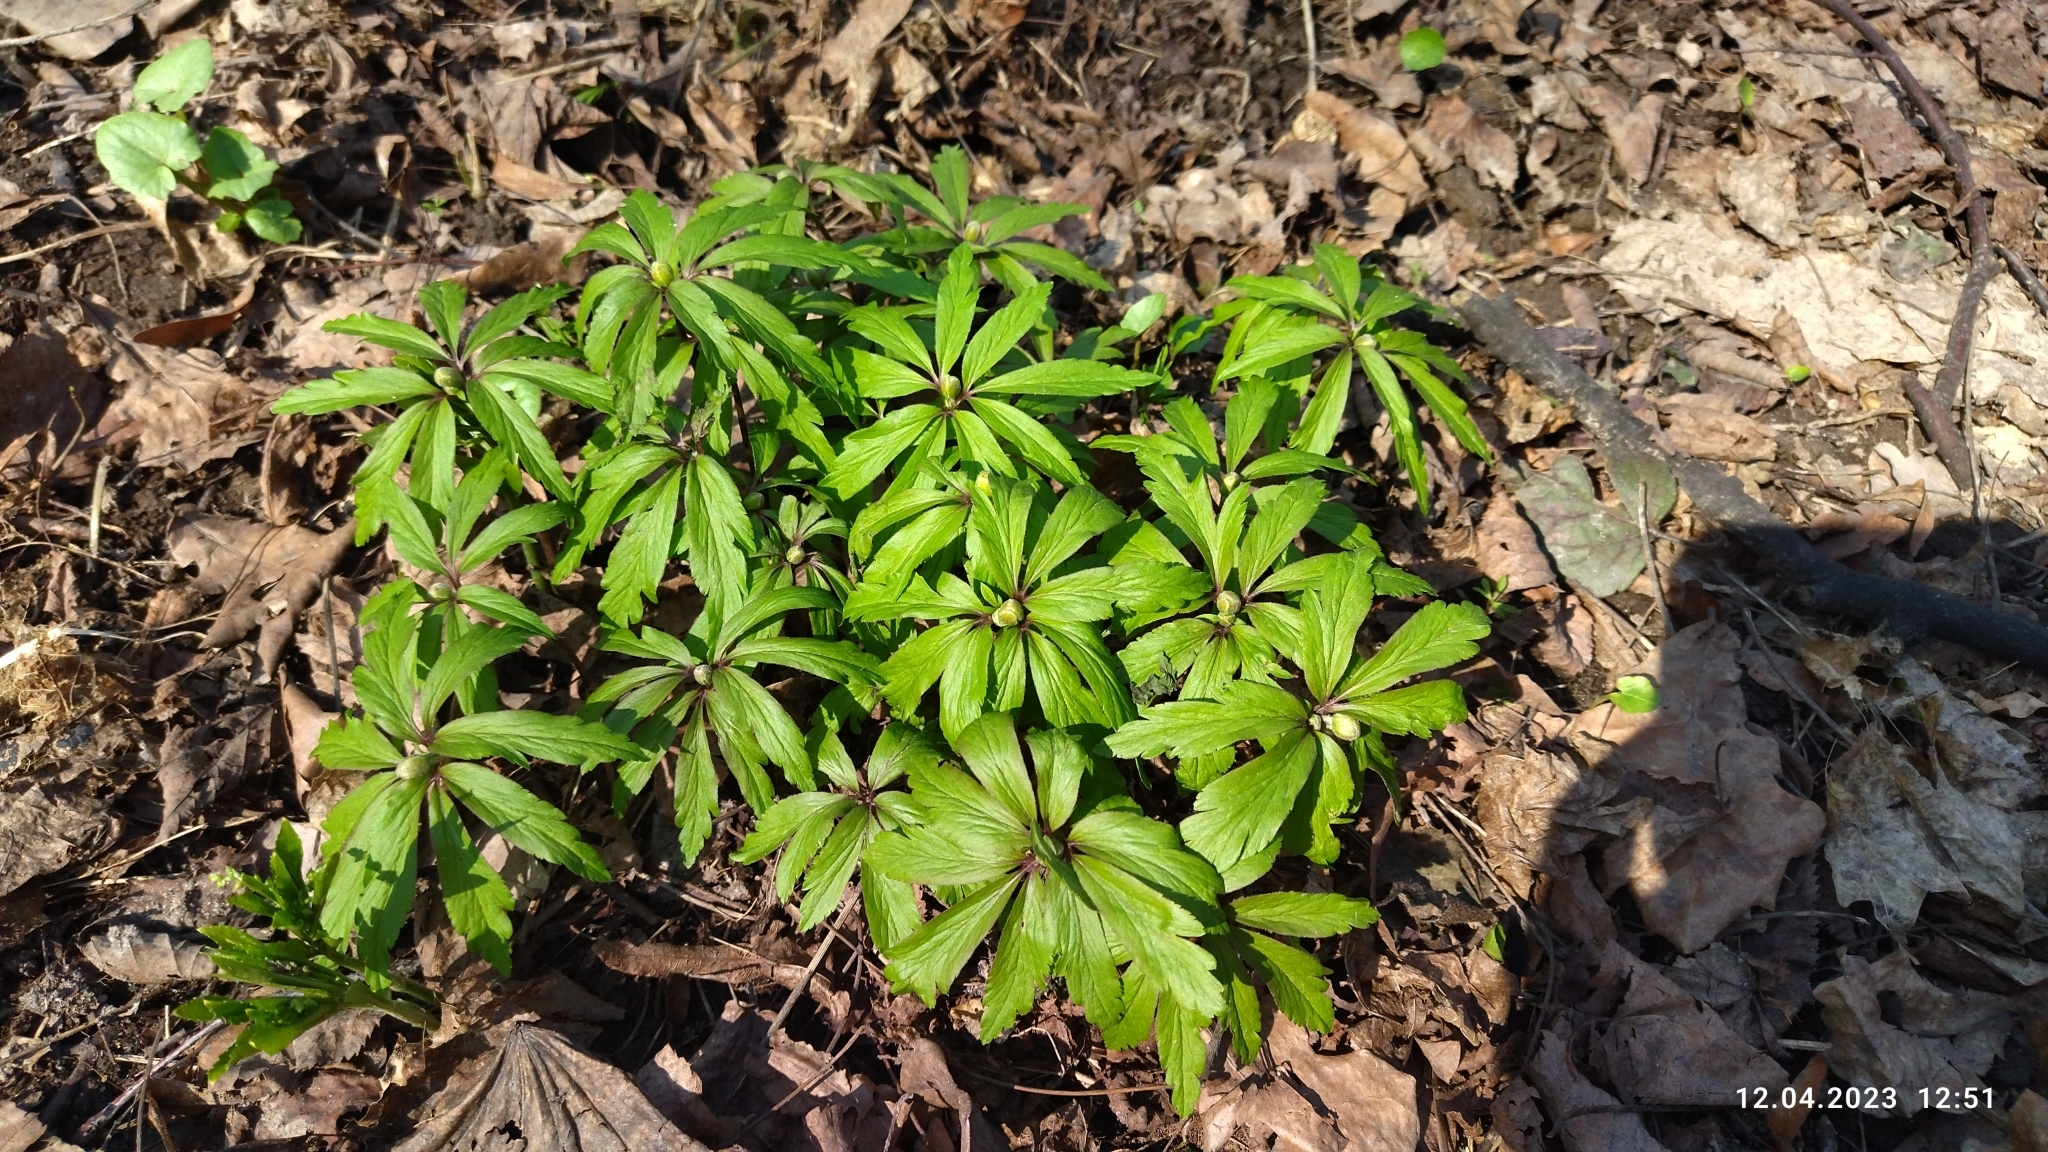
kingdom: Plantae
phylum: Tracheophyta
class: Magnoliopsida
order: Ranunculales
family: Ranunculaceae
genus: Anemone
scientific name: Anemone ranunculoides
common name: Yellow anemone
